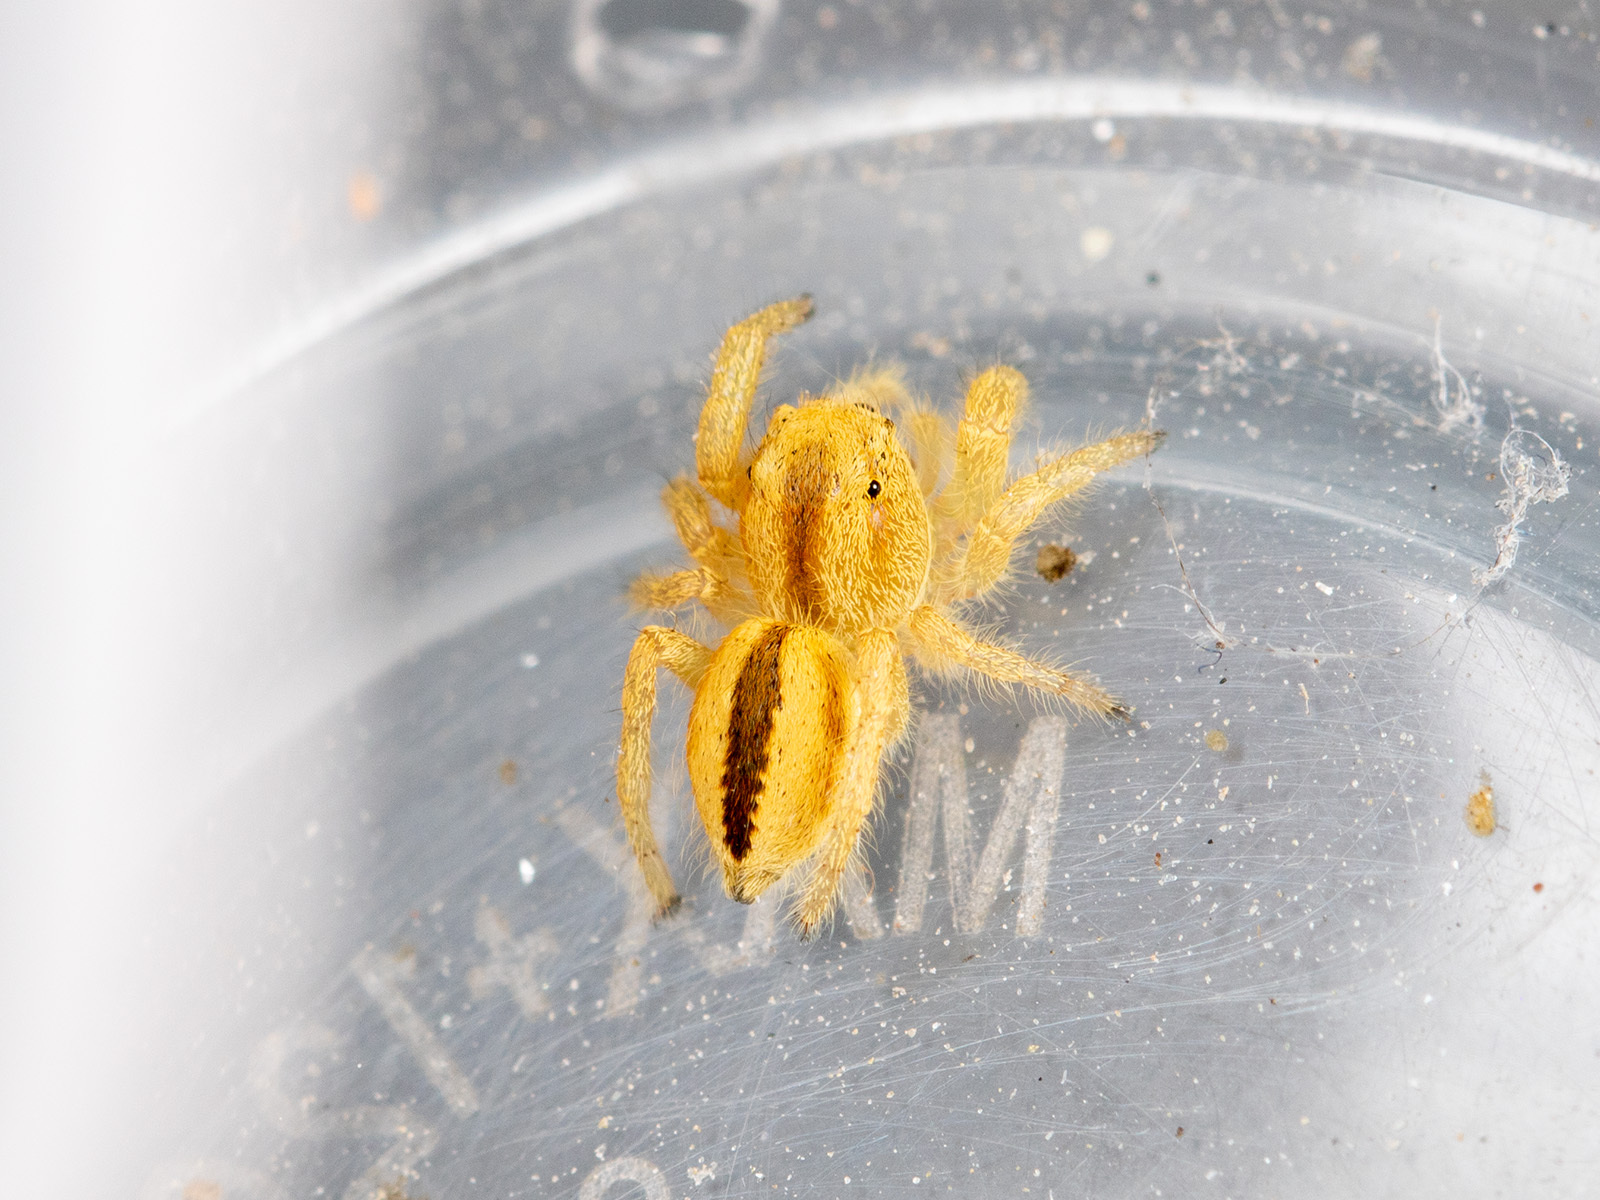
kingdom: Animalia
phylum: Arthropoda
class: Arachnida
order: Araneae
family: Salticidae
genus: Pseudomogrus
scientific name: Pseudomogrus zhilgaensis
